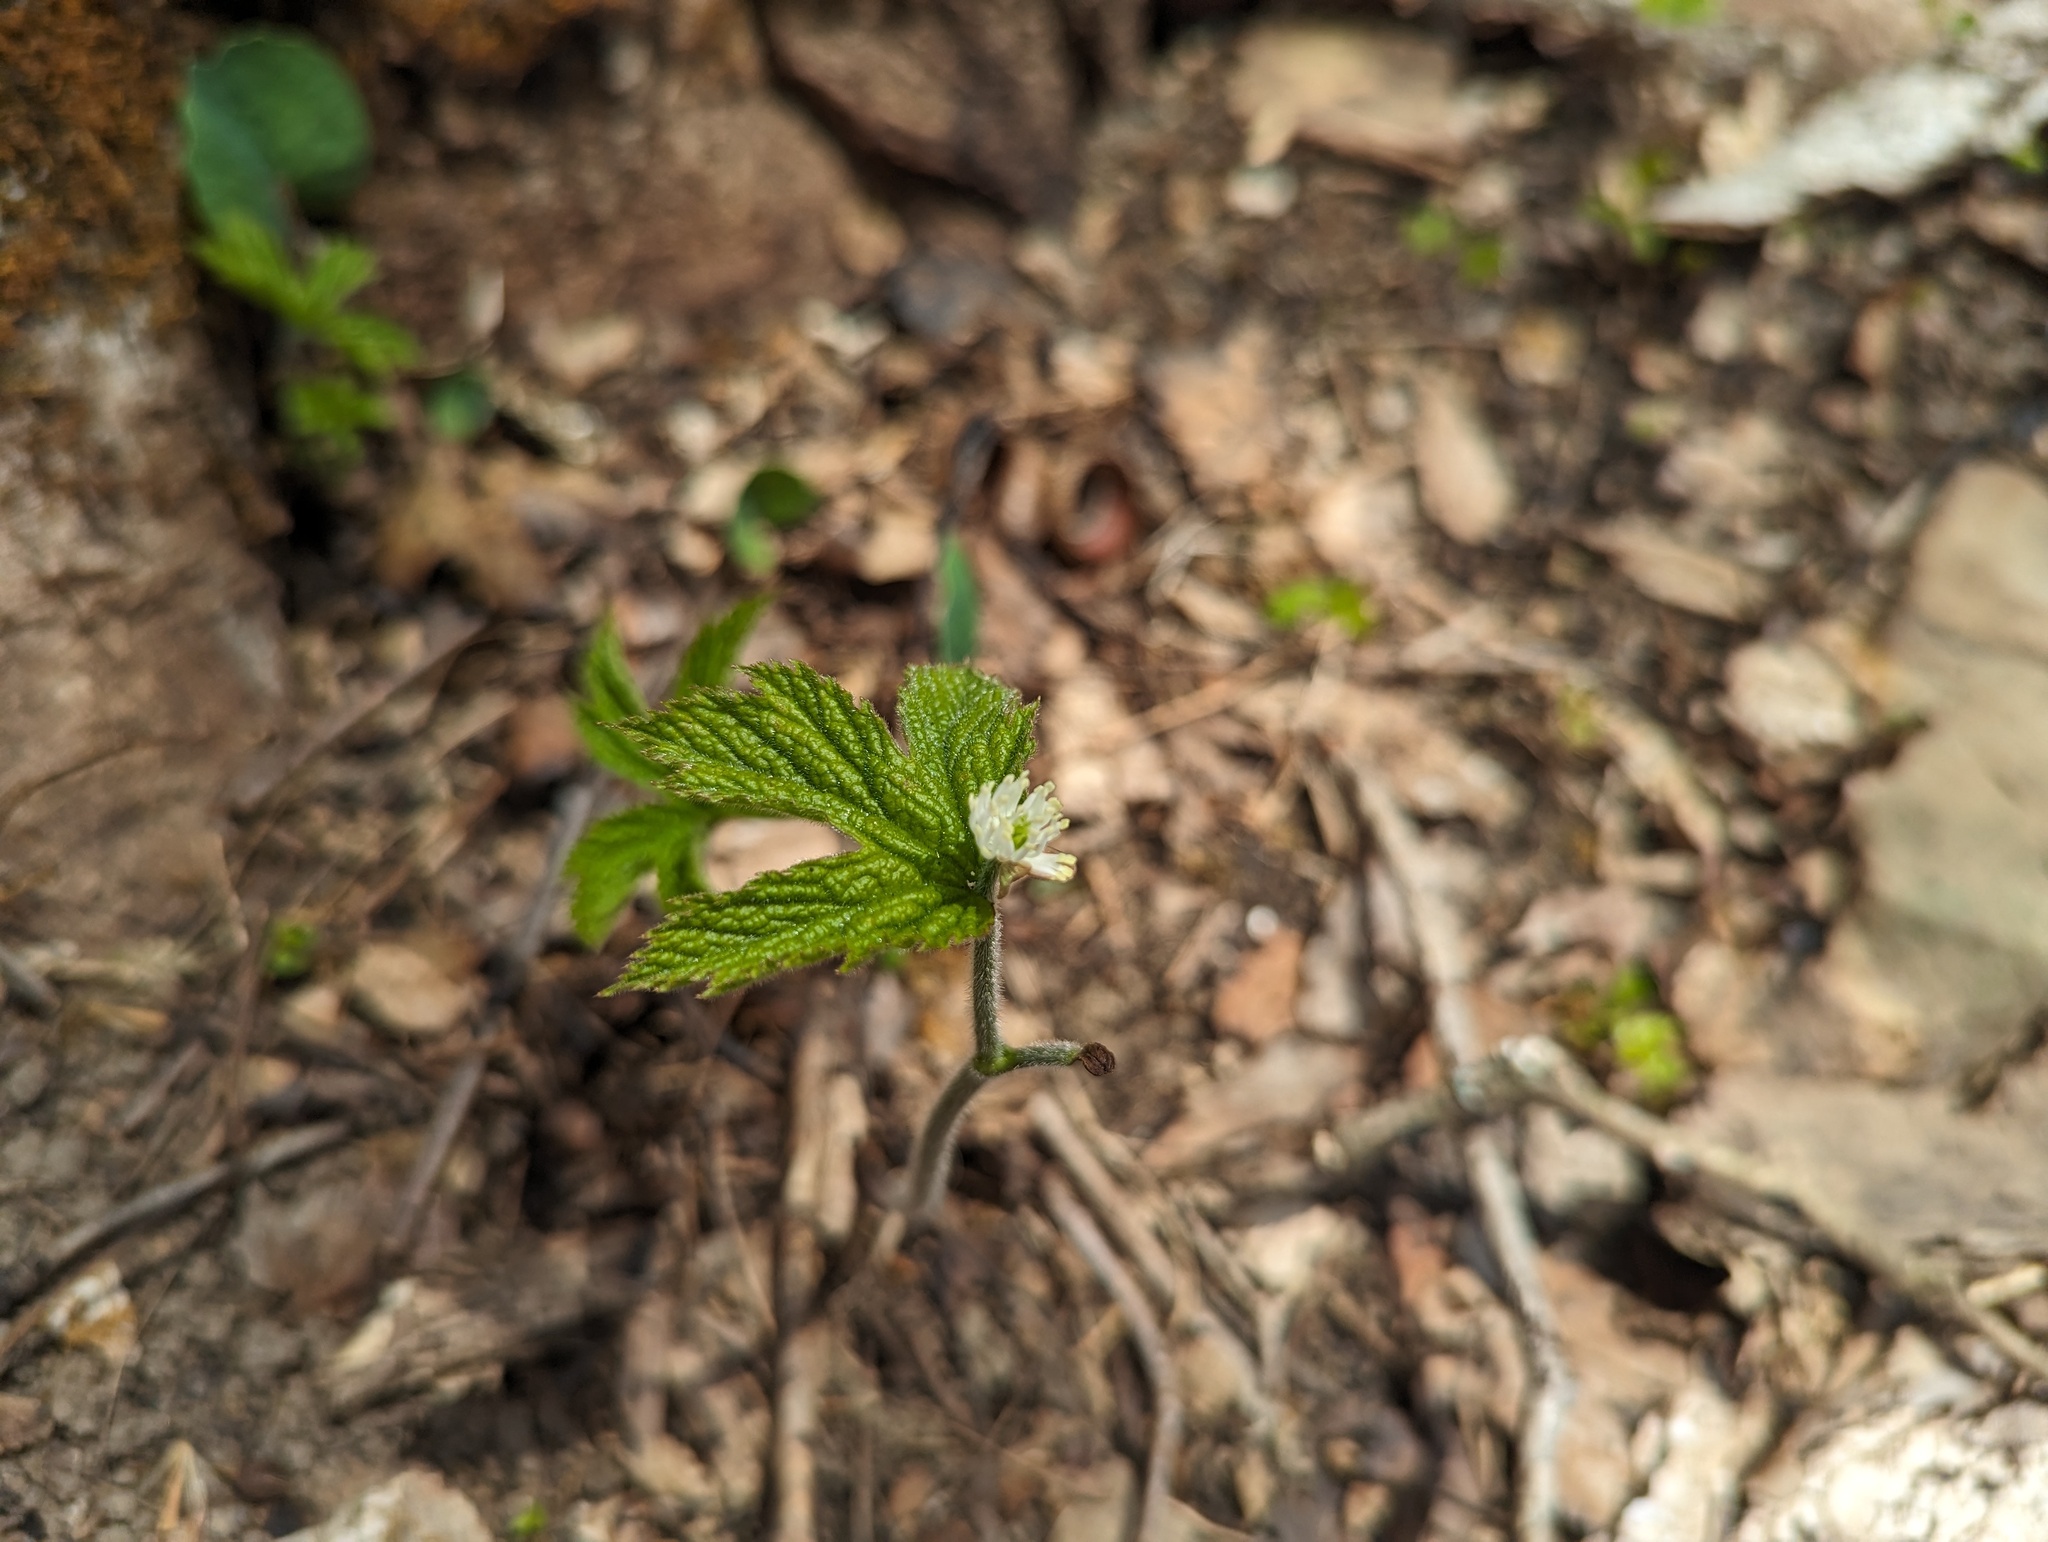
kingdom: Plantae
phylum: Tracheophyta
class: Magnoliopsida
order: Ranunculales
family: Ranunculaceae
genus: Hydrastis
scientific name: Hydrastis canadensis
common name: Goldenseal
